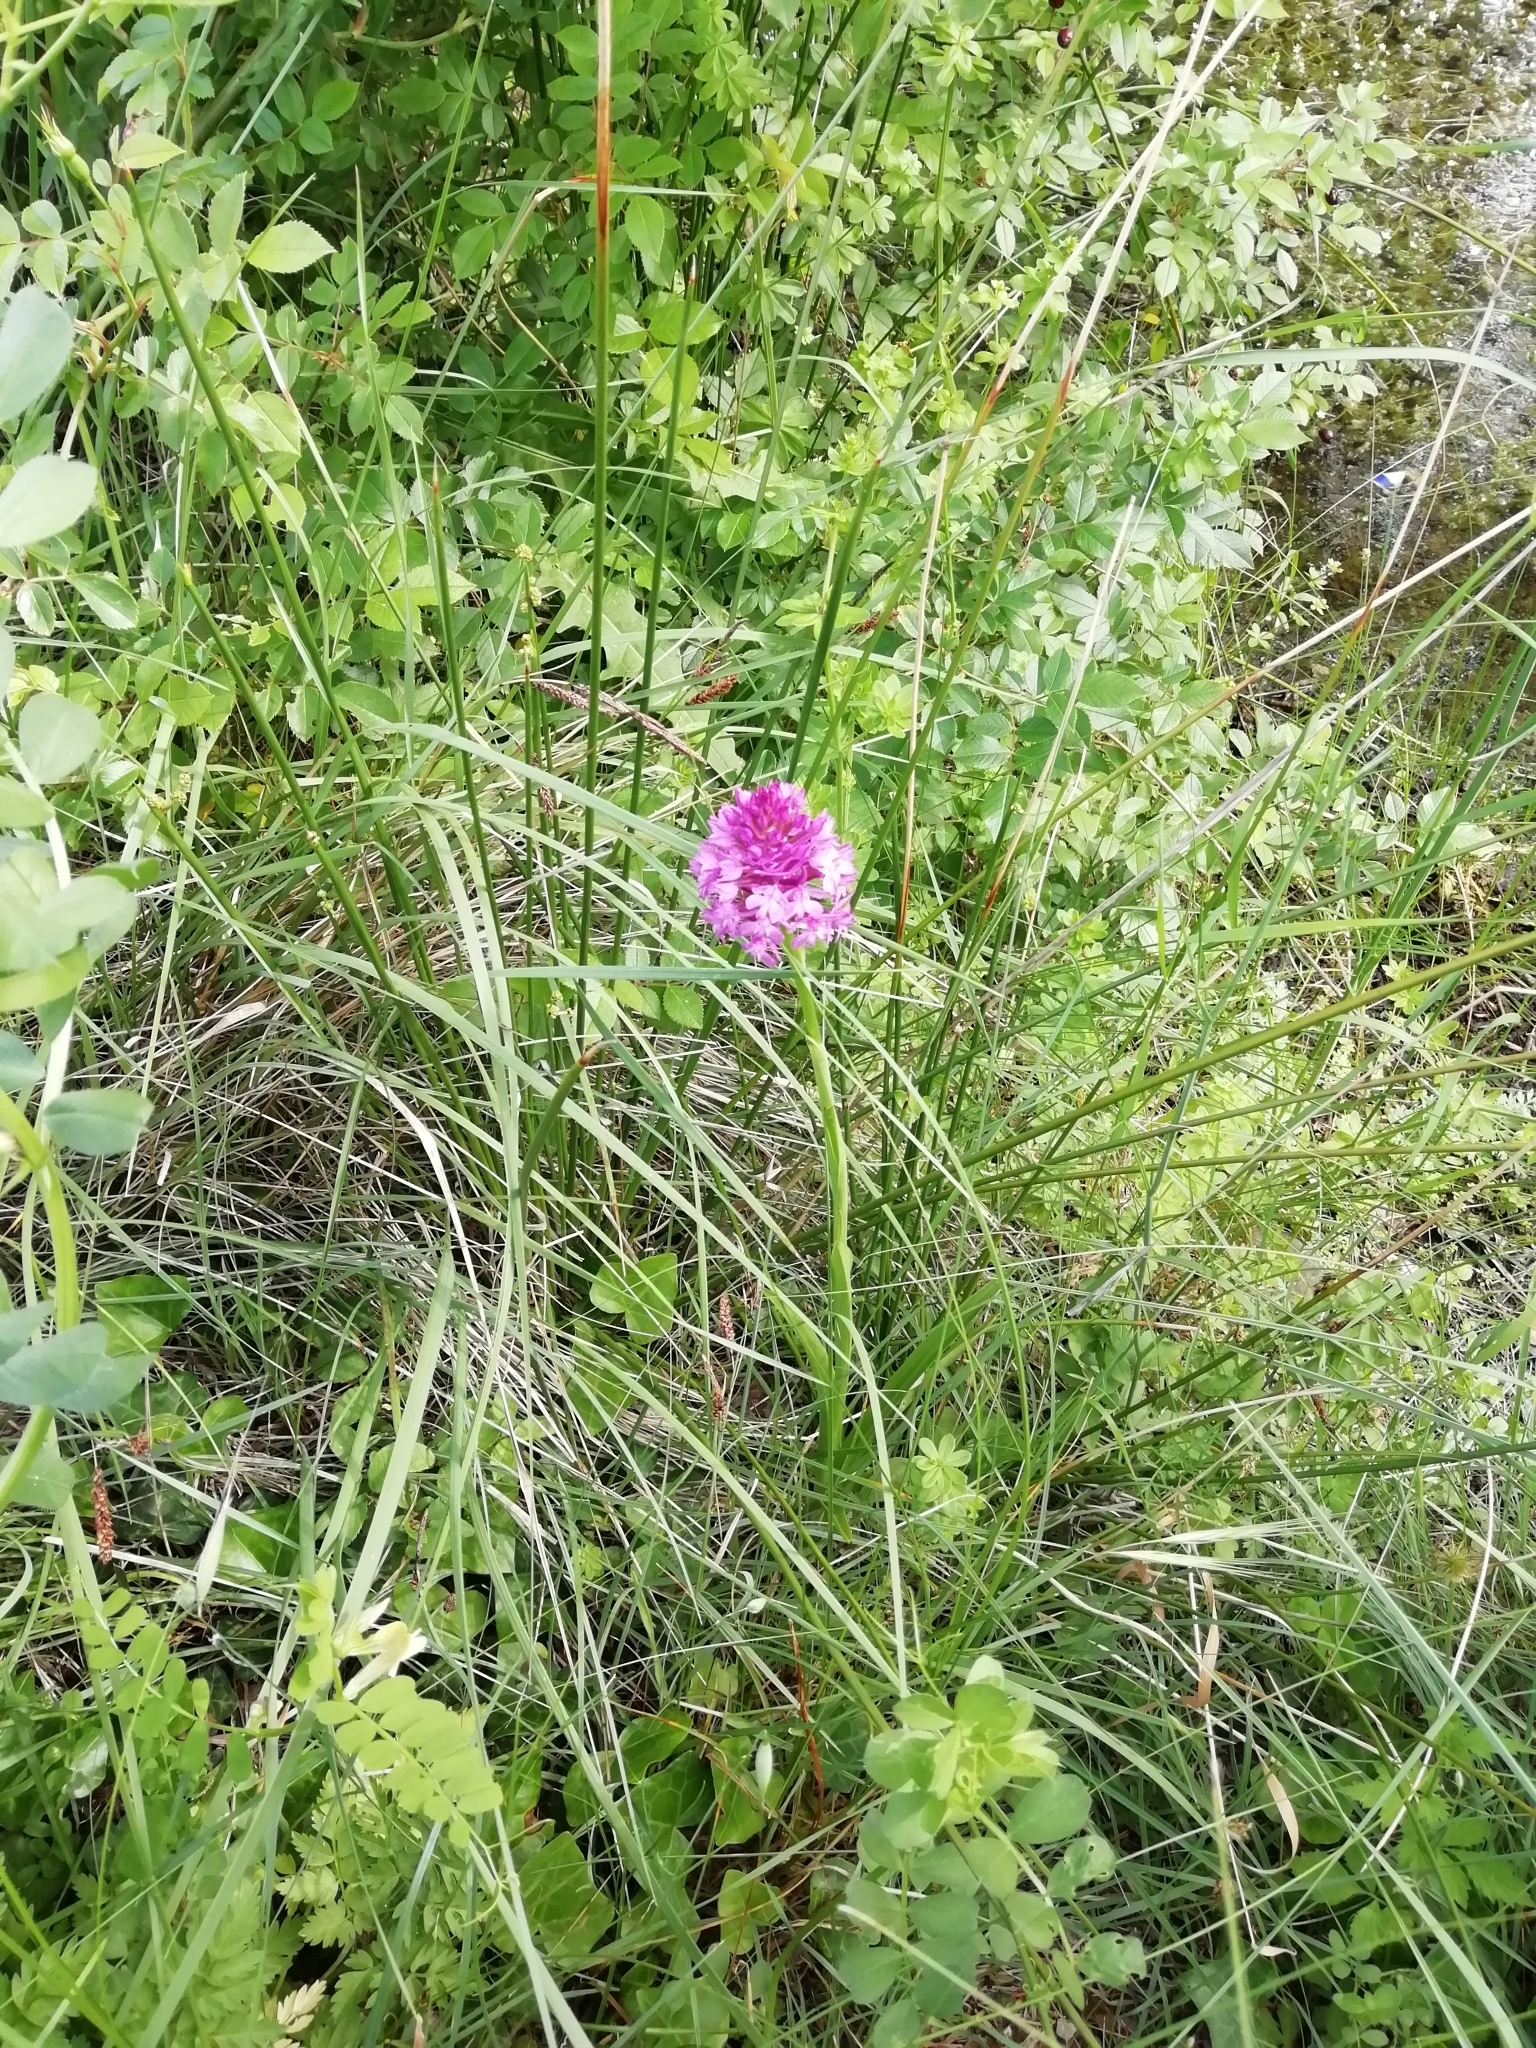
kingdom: Plantae
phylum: Tracheophyta
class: Liliopsida
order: Asparagales
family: Orchidaceae
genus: Anacamptis
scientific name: Anacamptis pyramidalis
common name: Pyramidal orchid
